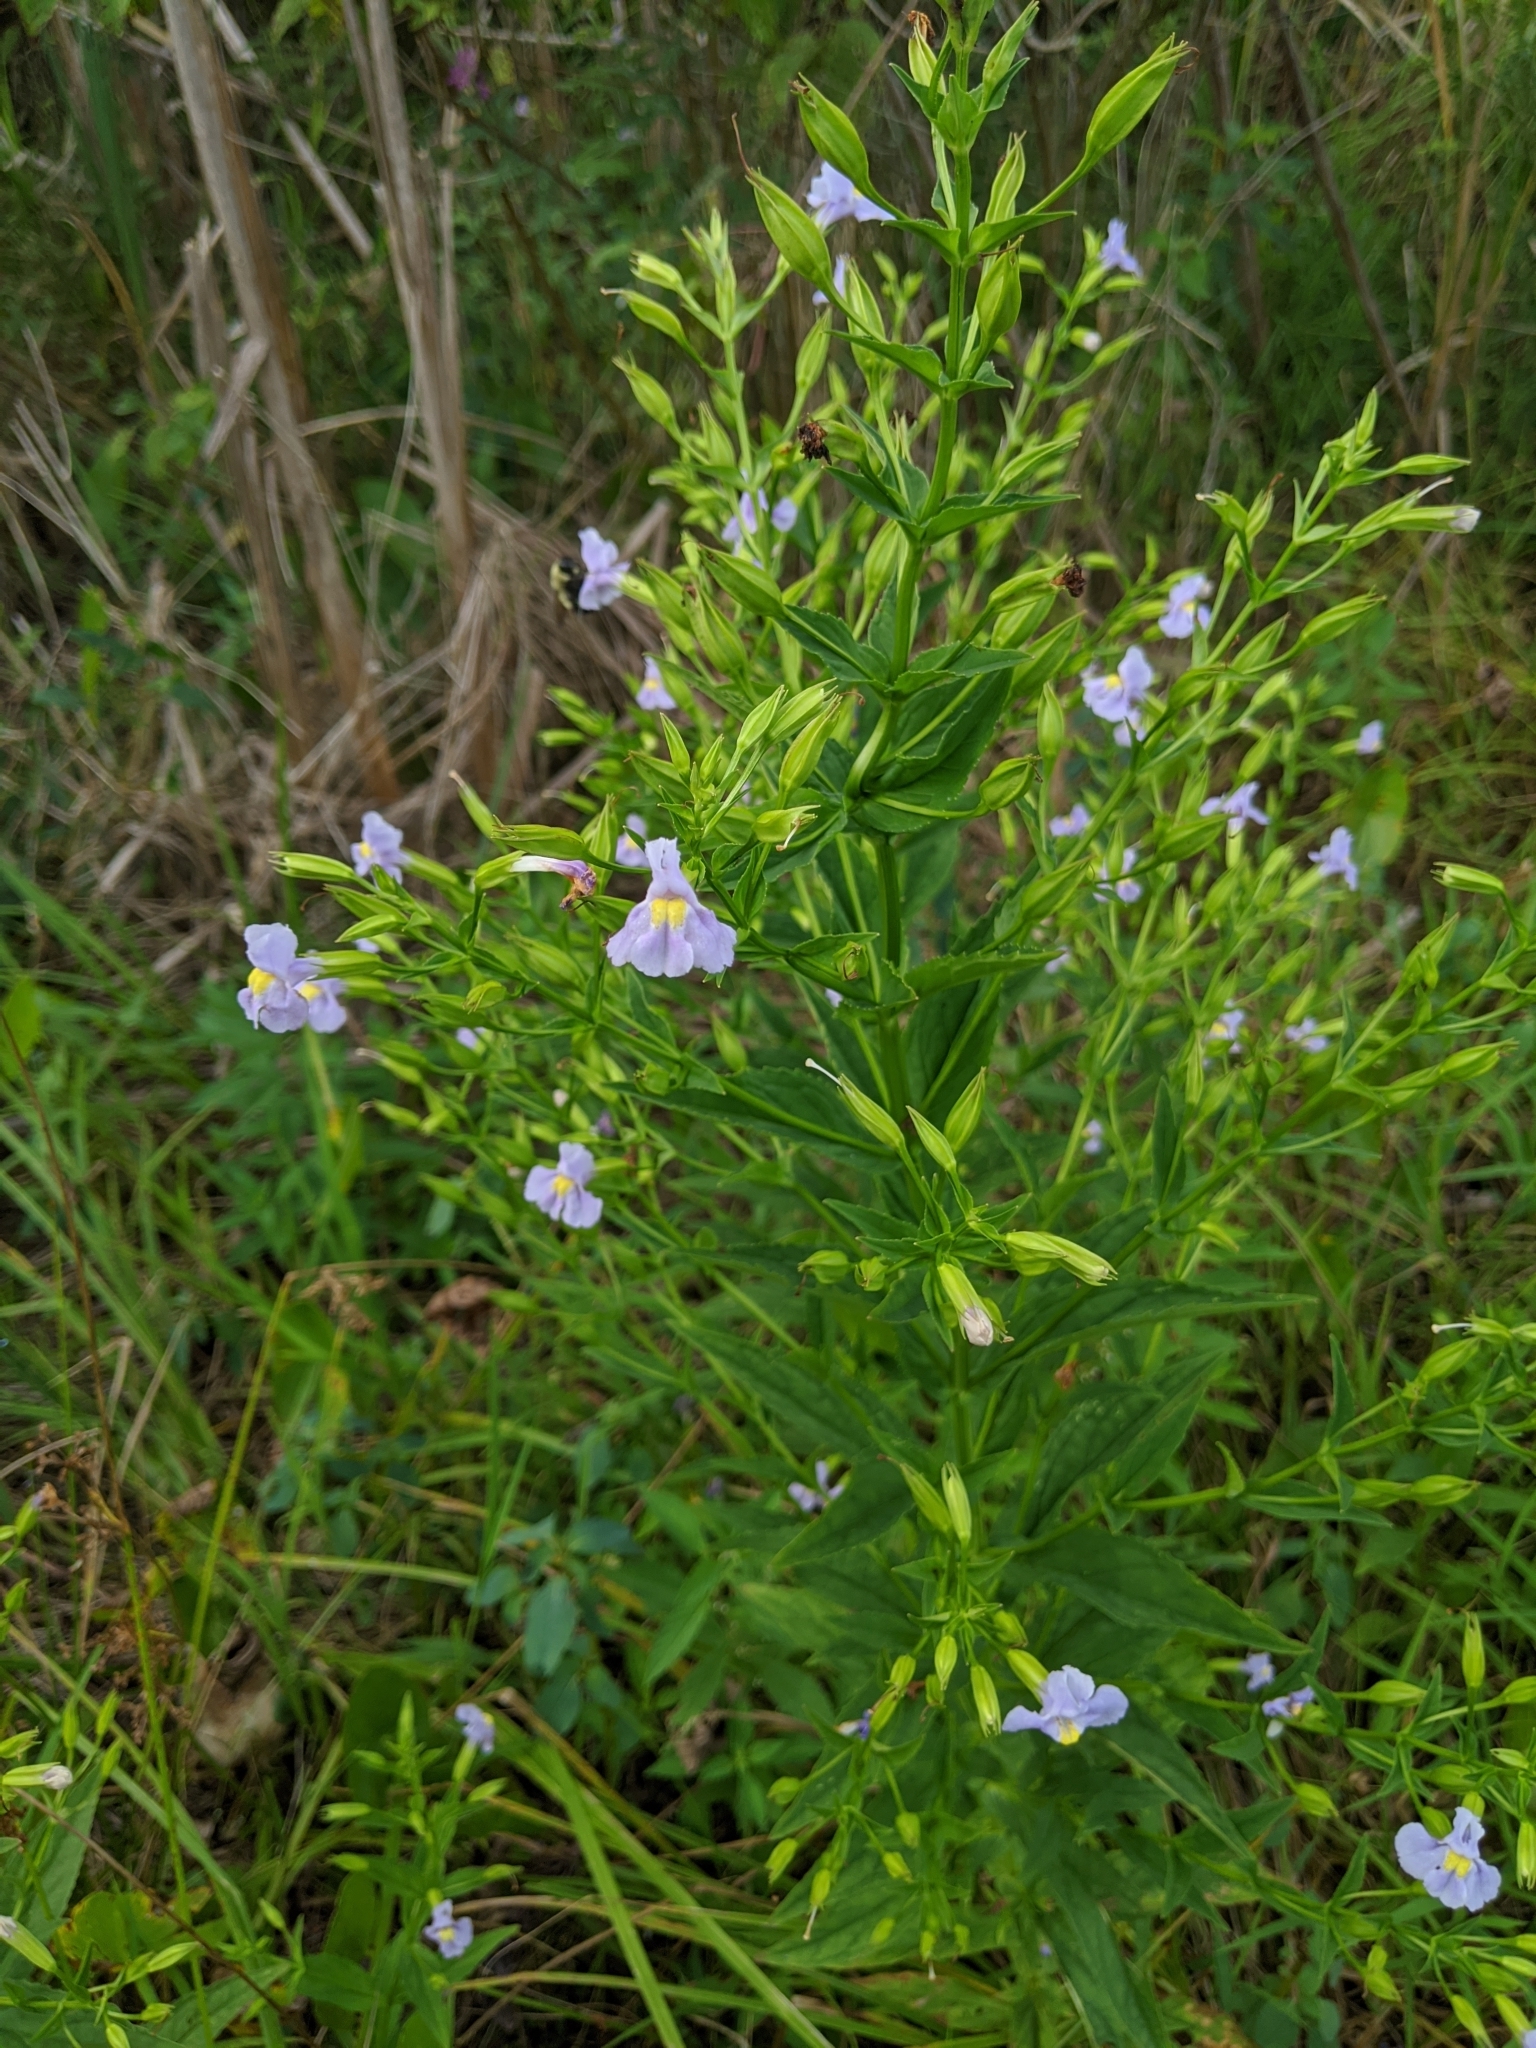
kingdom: Plantae
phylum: Tracheophyta
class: Magnoliopsida
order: Lamiales
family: Phrymaceae
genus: Mimulus
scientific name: Mimulus ringens
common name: Allegheny monkeyflower
